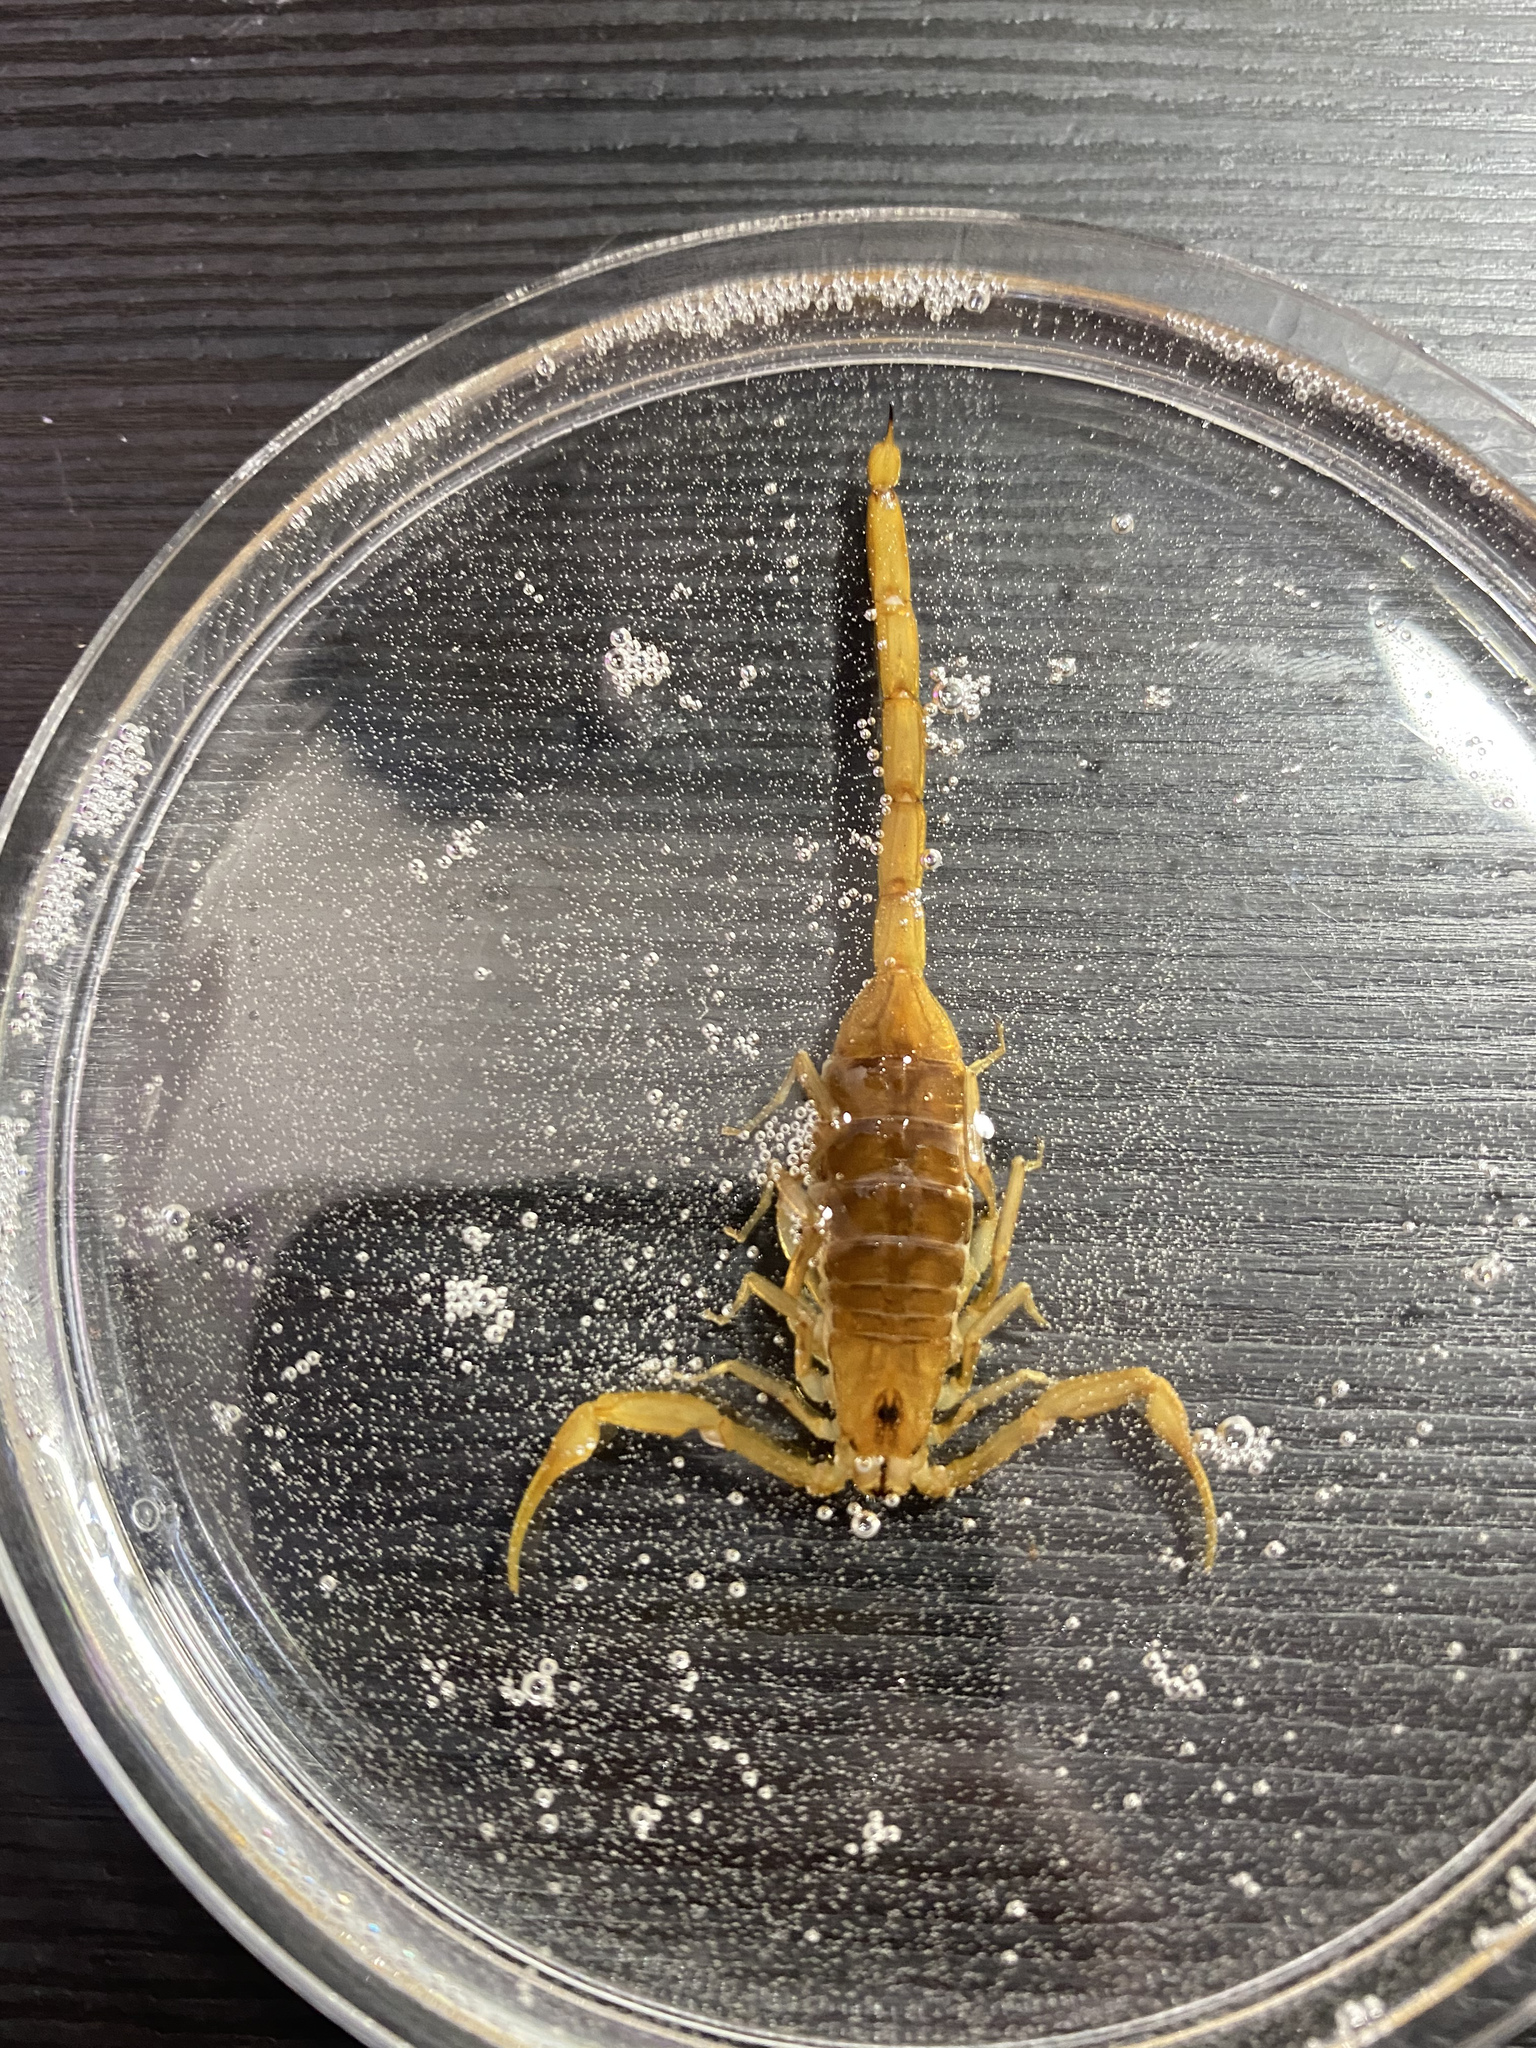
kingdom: Animalia
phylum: Arthropoda
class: Arachnida
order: Scorpiones
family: Buthidae
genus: Centruroides
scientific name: Centruroides sculpturatus
